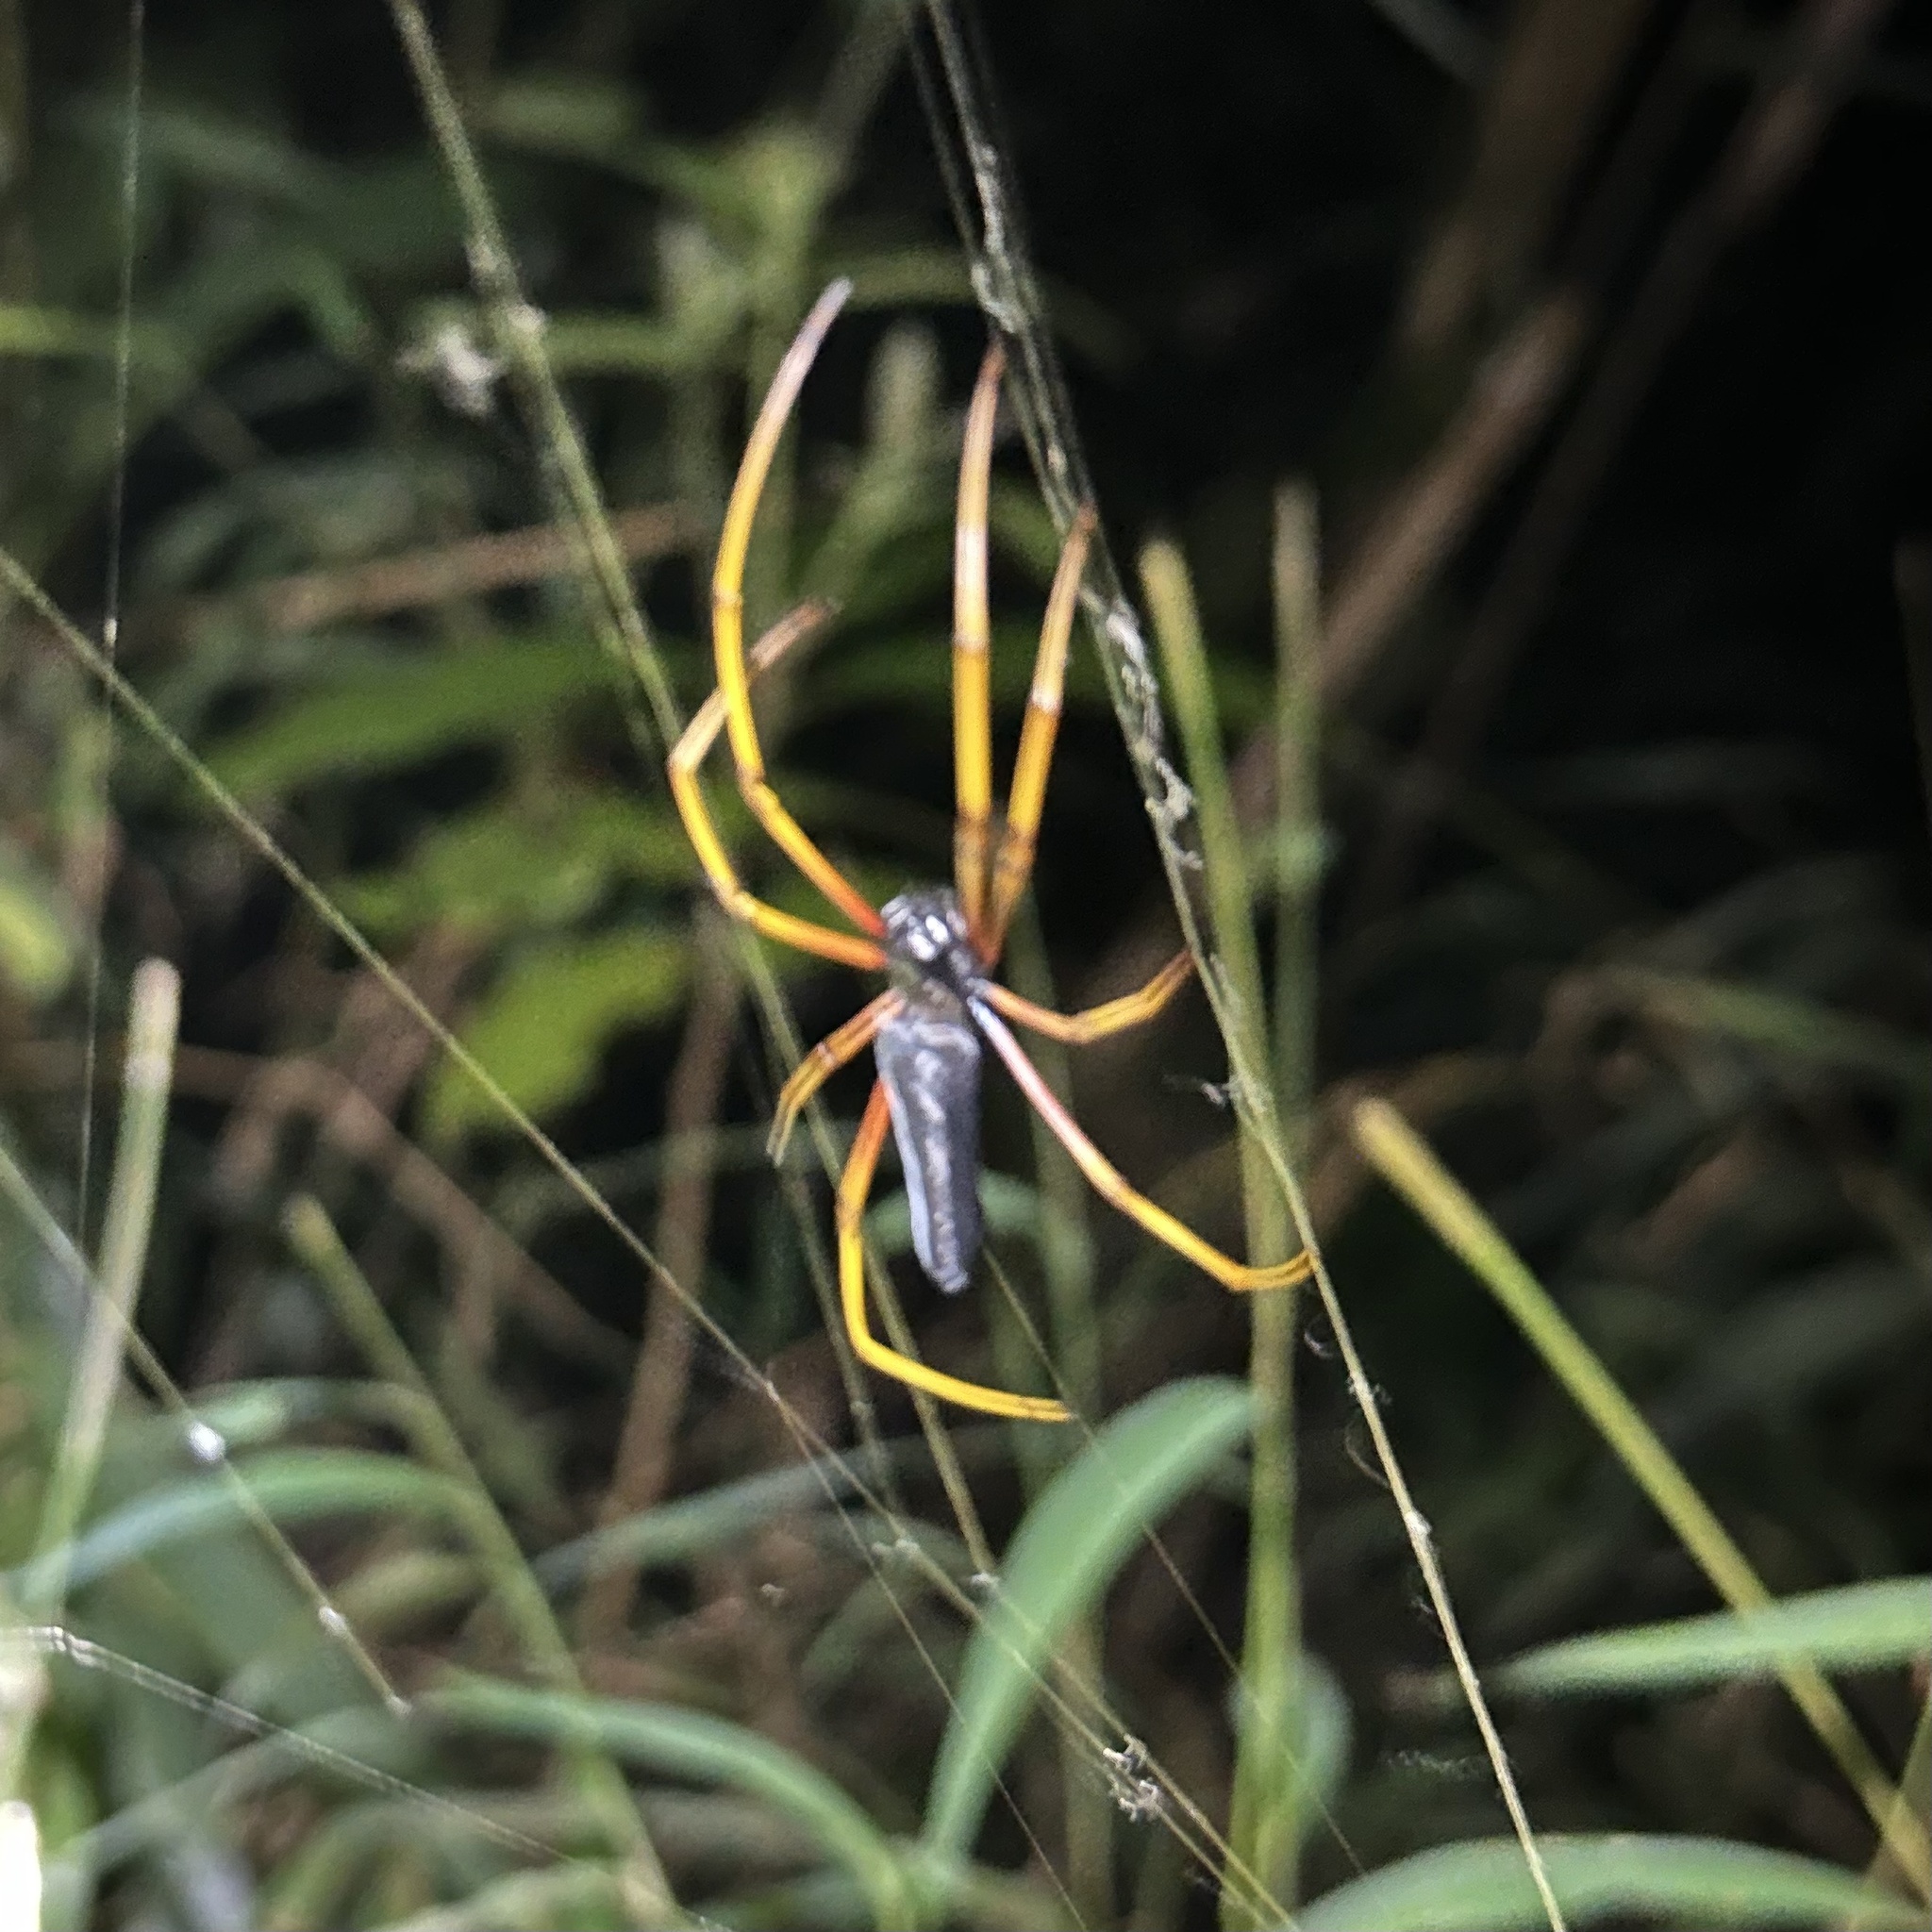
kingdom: Animalia
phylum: Arthropoda
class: Arachnida
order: Araneae
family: Araneidae
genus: Nephila
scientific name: Nephila kuhli
